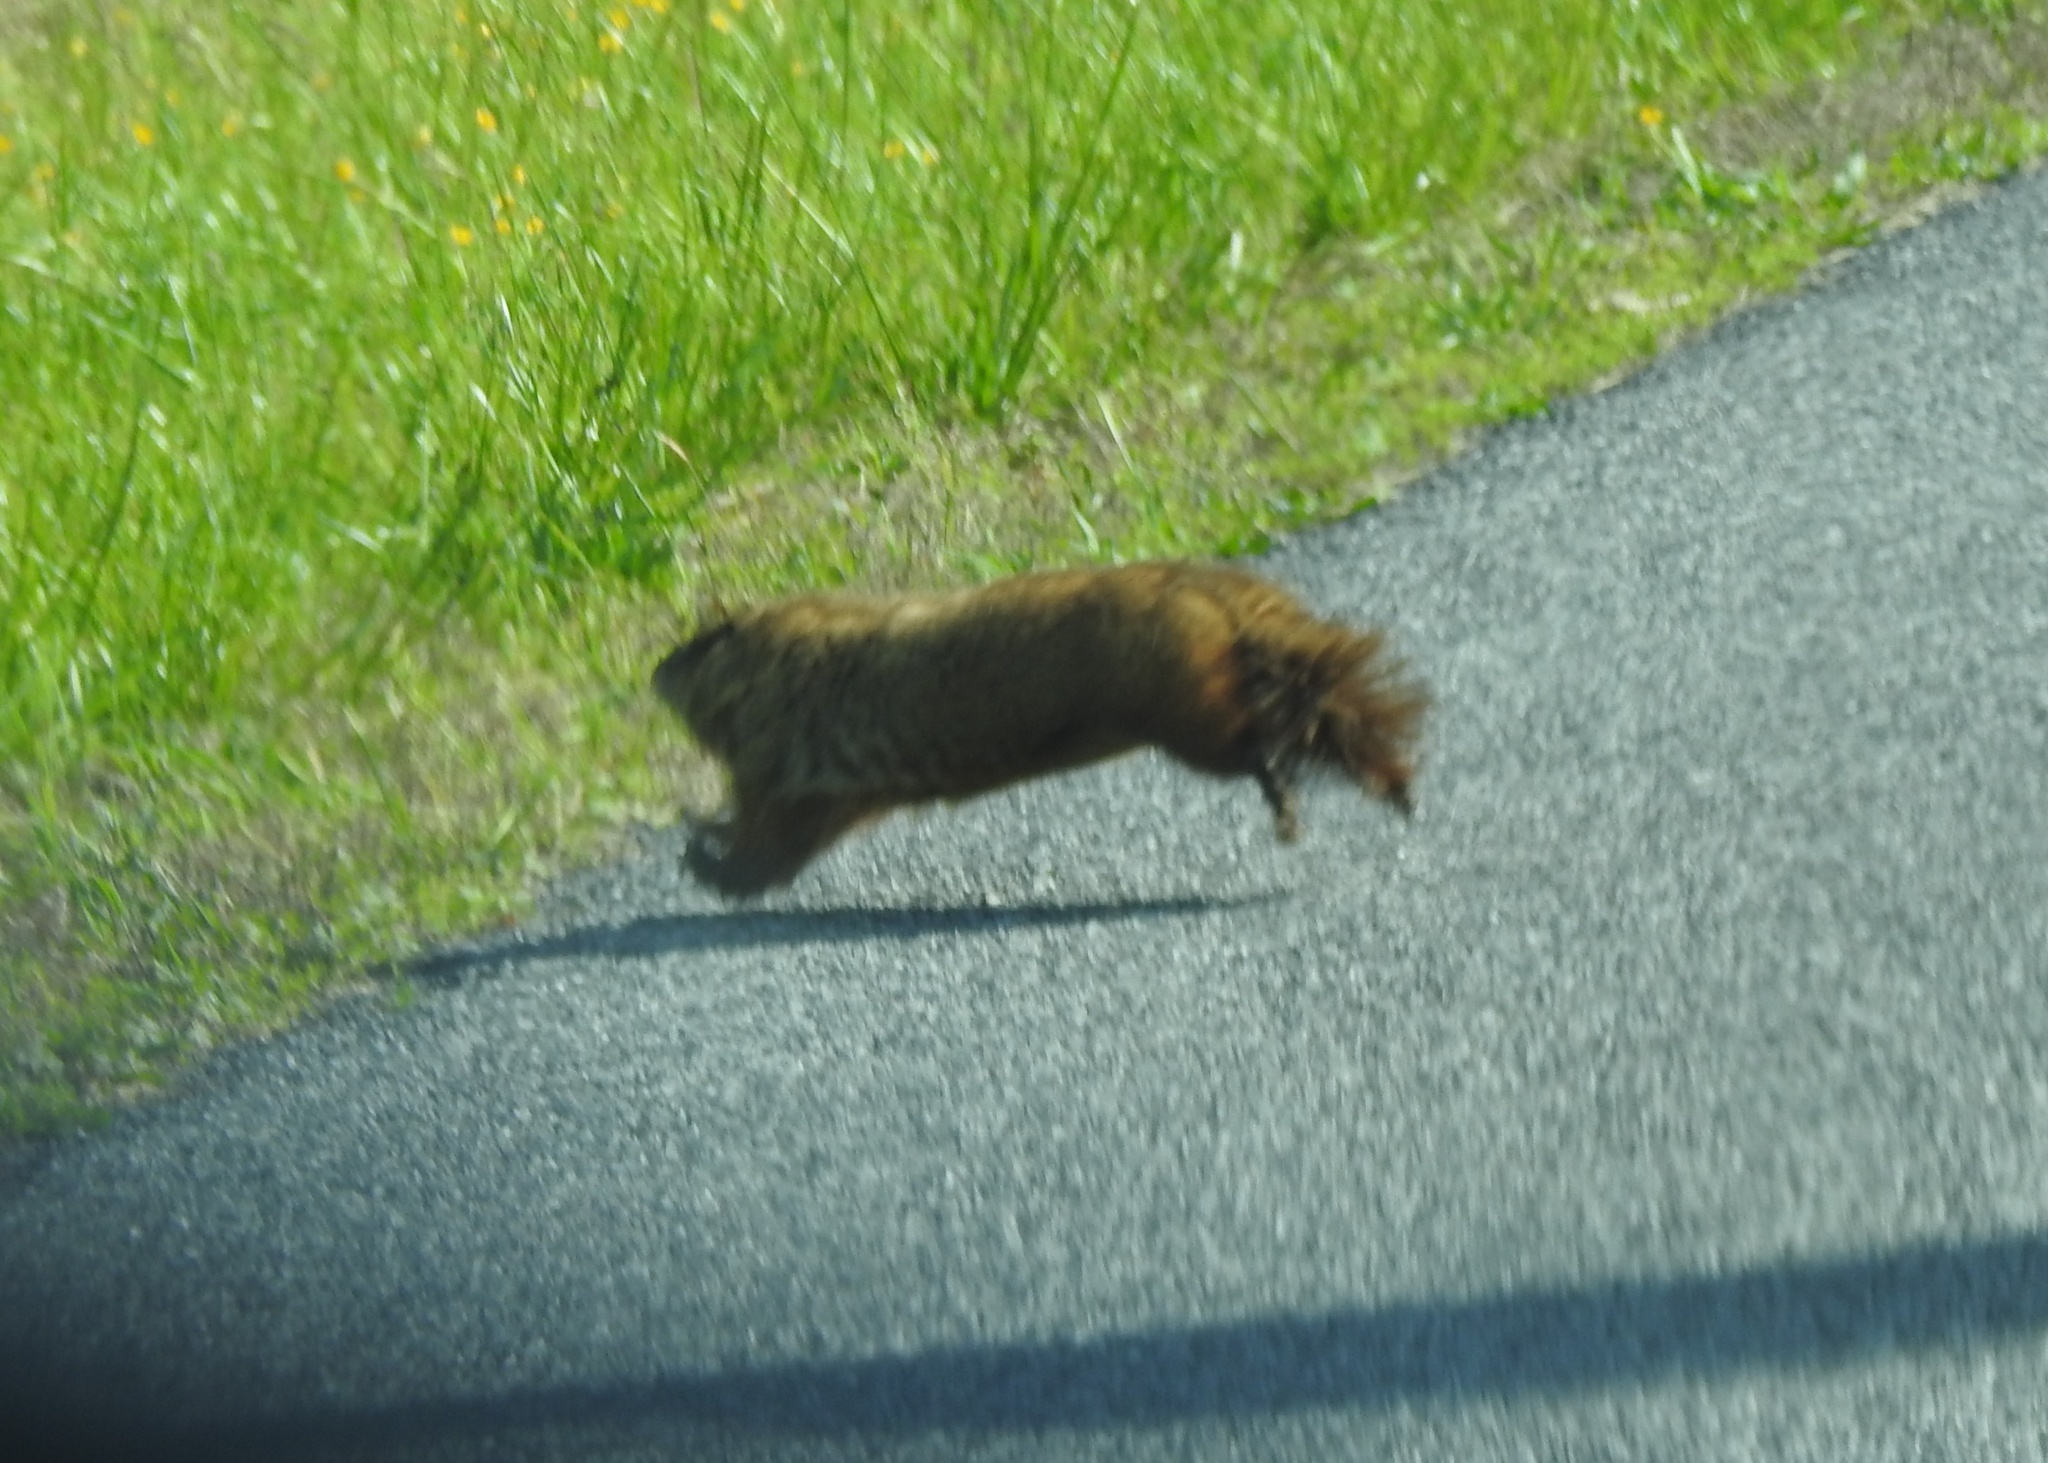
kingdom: Animalia
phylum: Chordata
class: Mammalia
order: Rodentia
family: Sciuridae
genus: Marmota
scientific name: Marmota monax
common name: Groundhog
